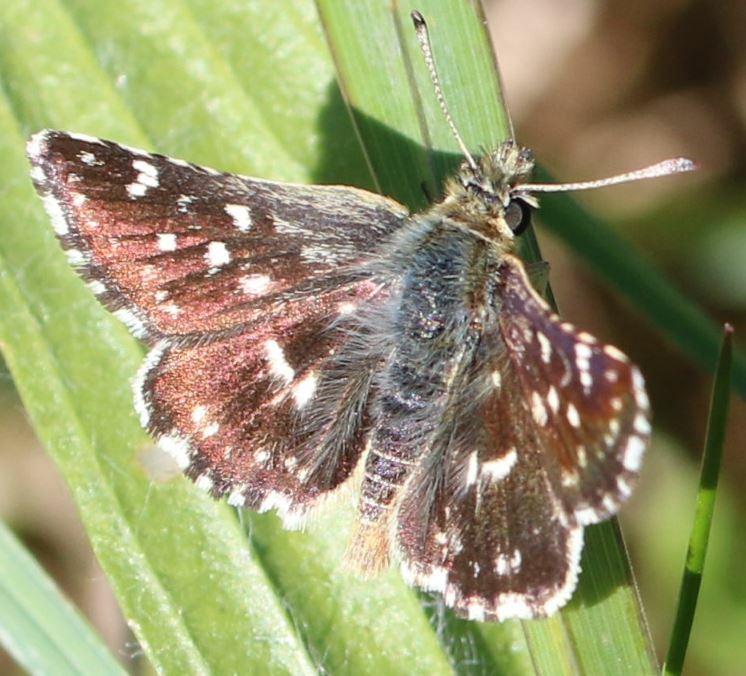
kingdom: Animalia
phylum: Arthropoda
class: Insecta
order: Lepidoptera
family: Hesperiidae
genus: Spialia
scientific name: Spialia sertorius
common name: Red underwing skipper
